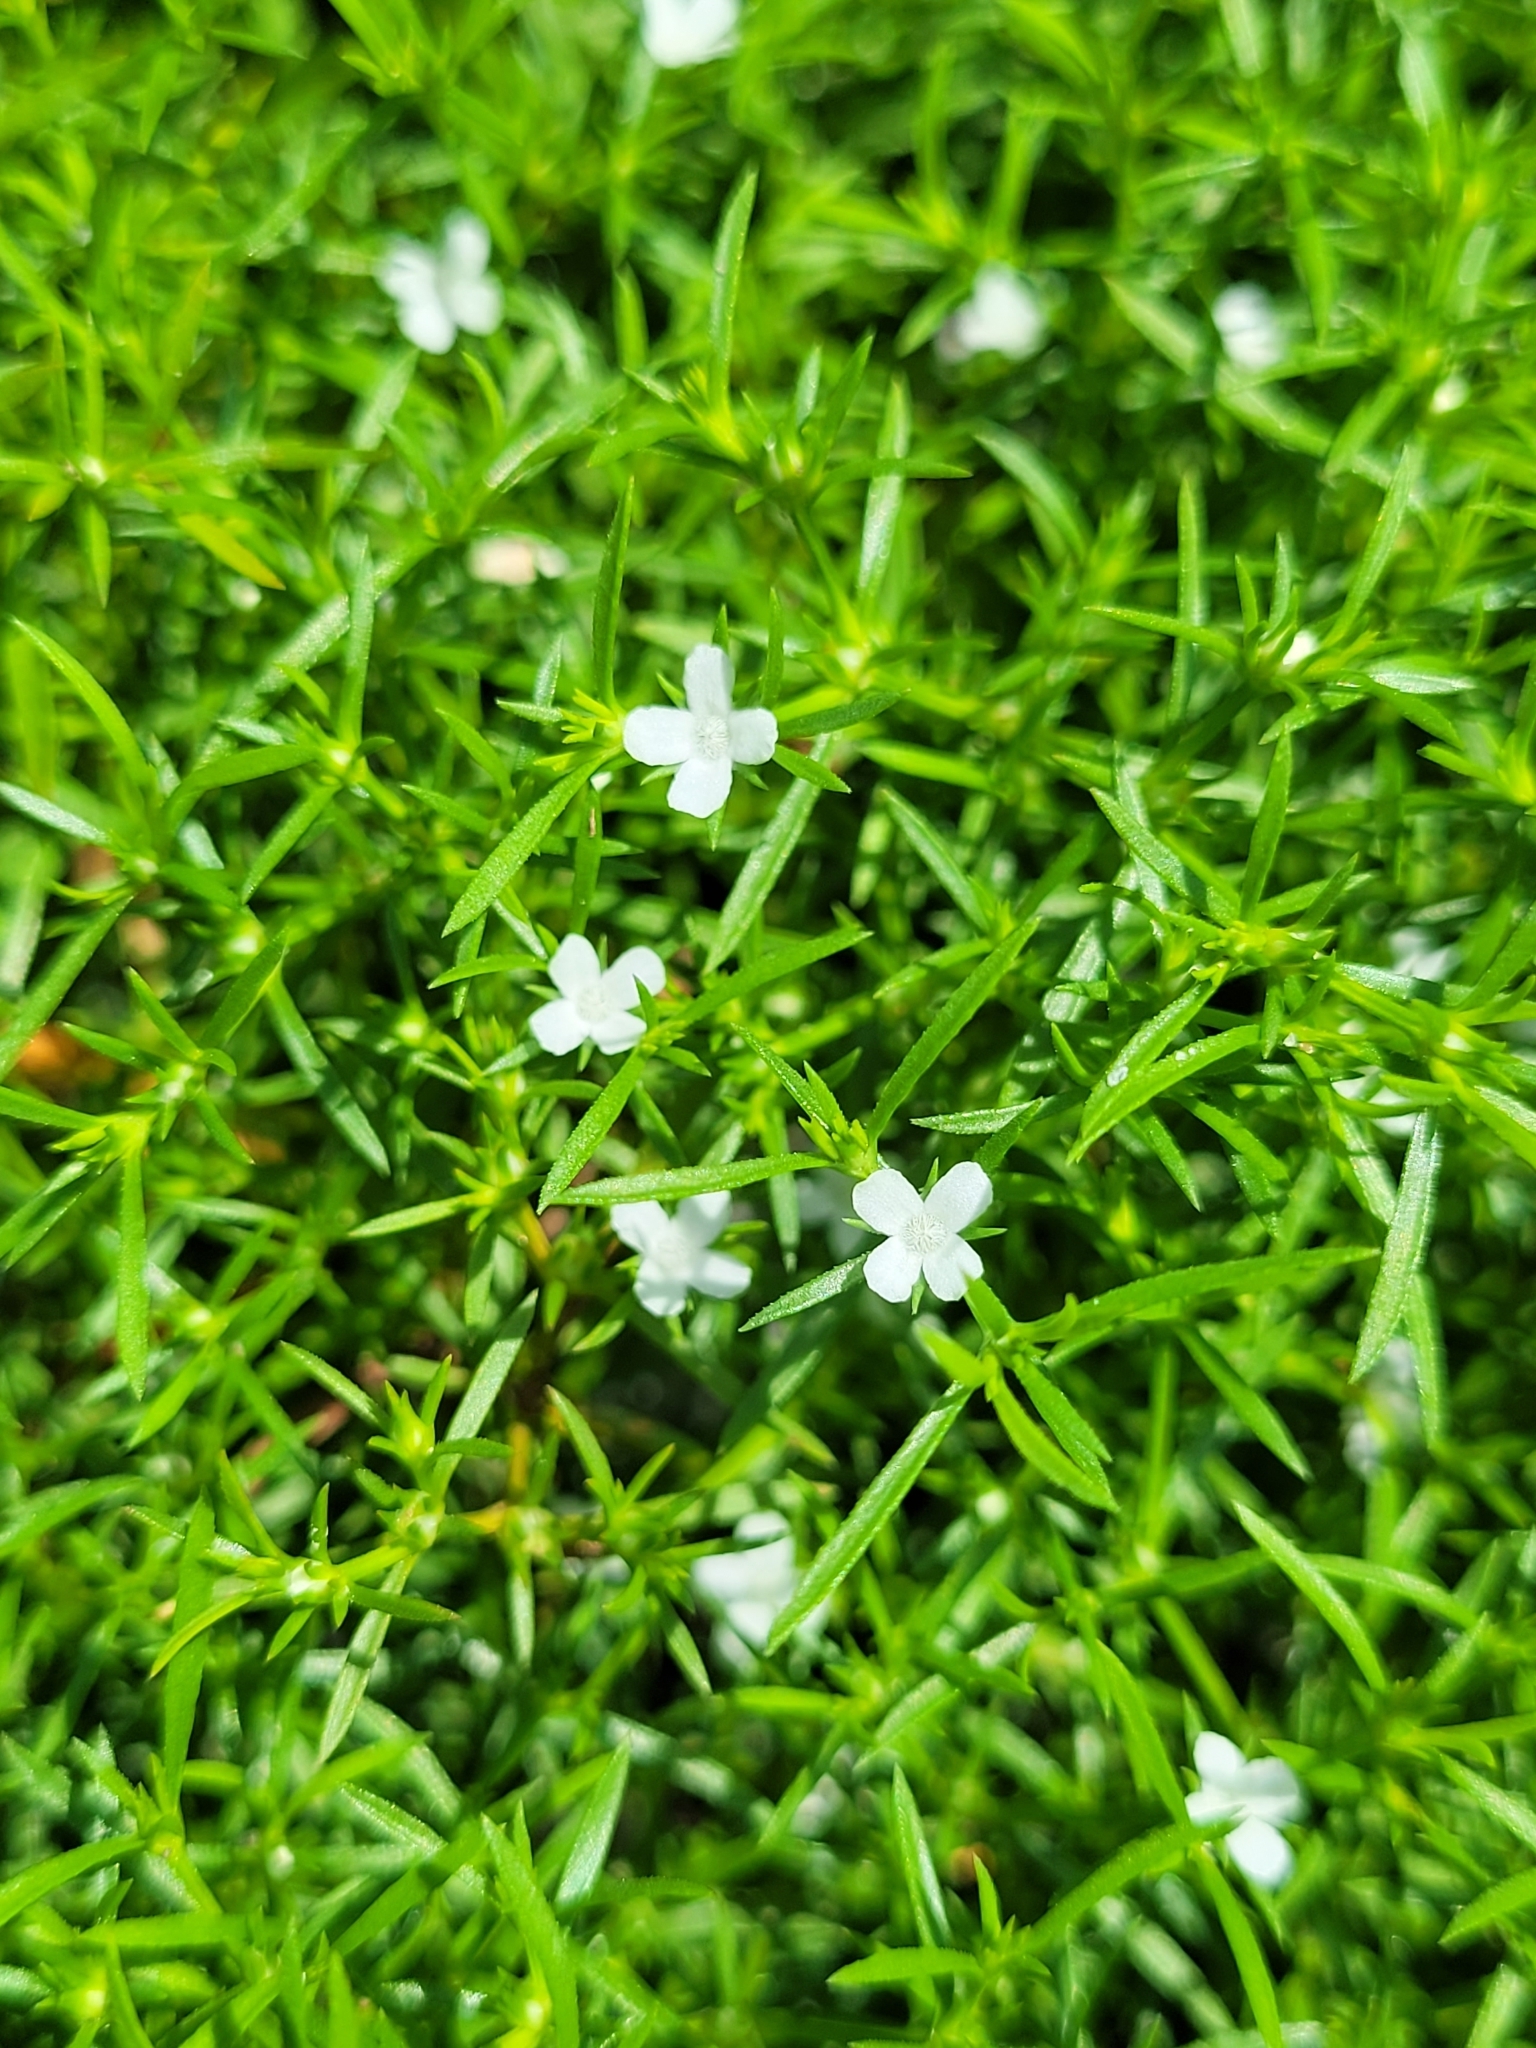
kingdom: Plantae
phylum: Tracheophyta
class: Magnoliopsida
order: Lamiales
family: Tetrachondraceae
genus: Polypremum
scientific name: Polypremum procumbens
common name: Juniper-leaf
